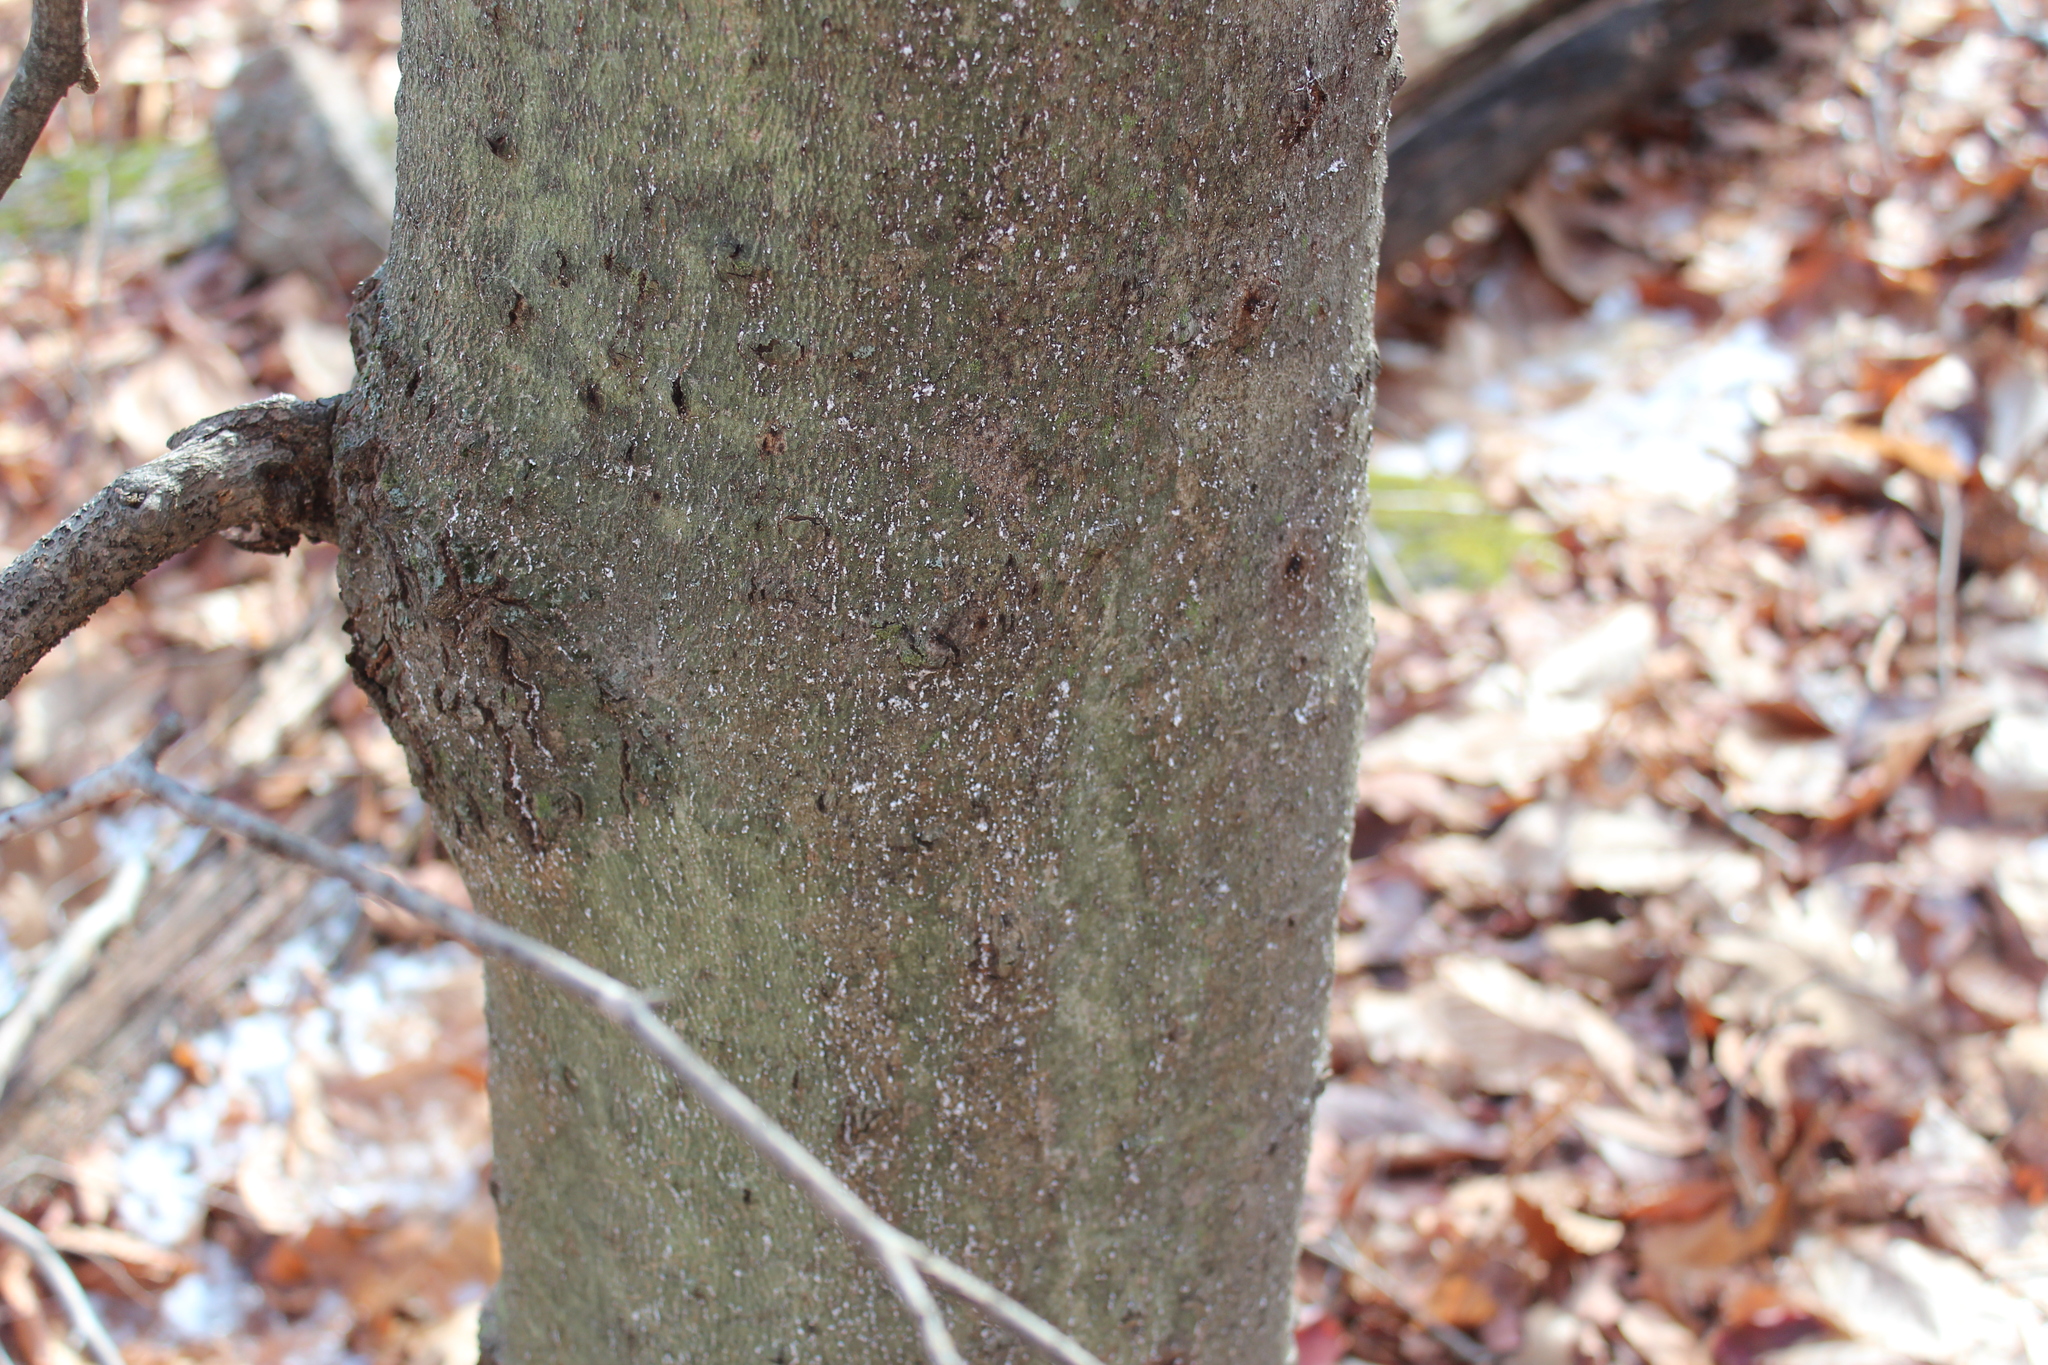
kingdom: Animalia
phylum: Arthropoda
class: Insecta
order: Hemiptera
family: Eriococcidae
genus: Cryptococcus
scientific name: Cryptococcus fagisuga
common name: Beech scale
